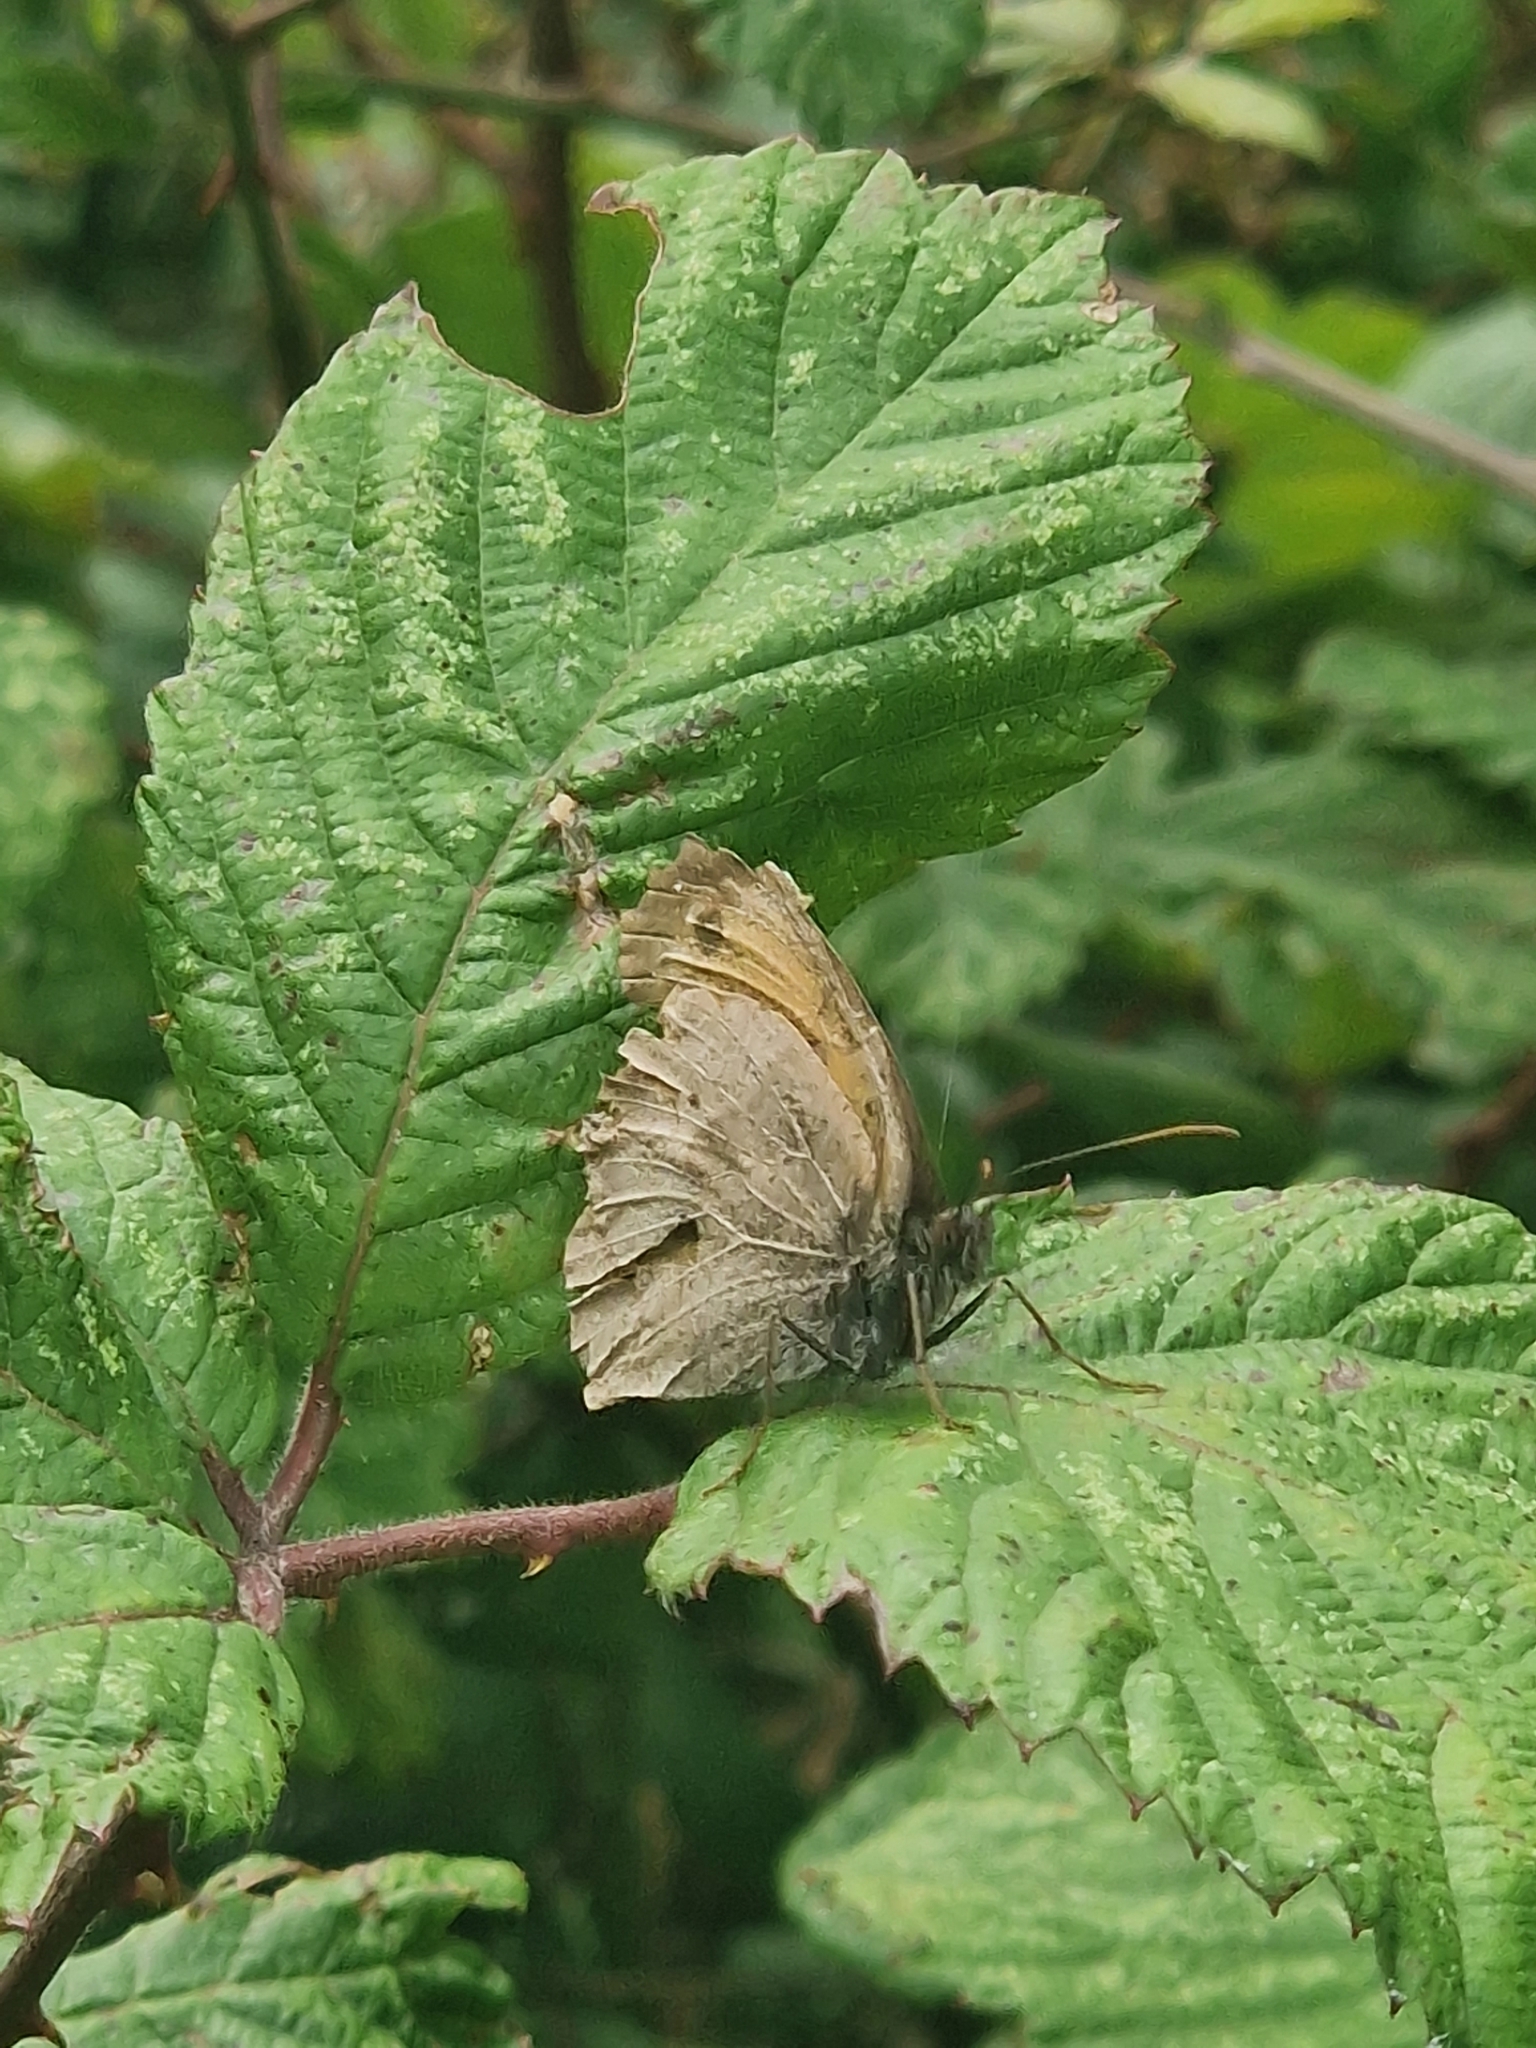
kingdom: Animalia
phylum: Arthropoda
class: Insecta
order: Lepidoptera
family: Nymphalidae
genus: Maniola
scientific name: Maniola jurtina
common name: Meadow brown
